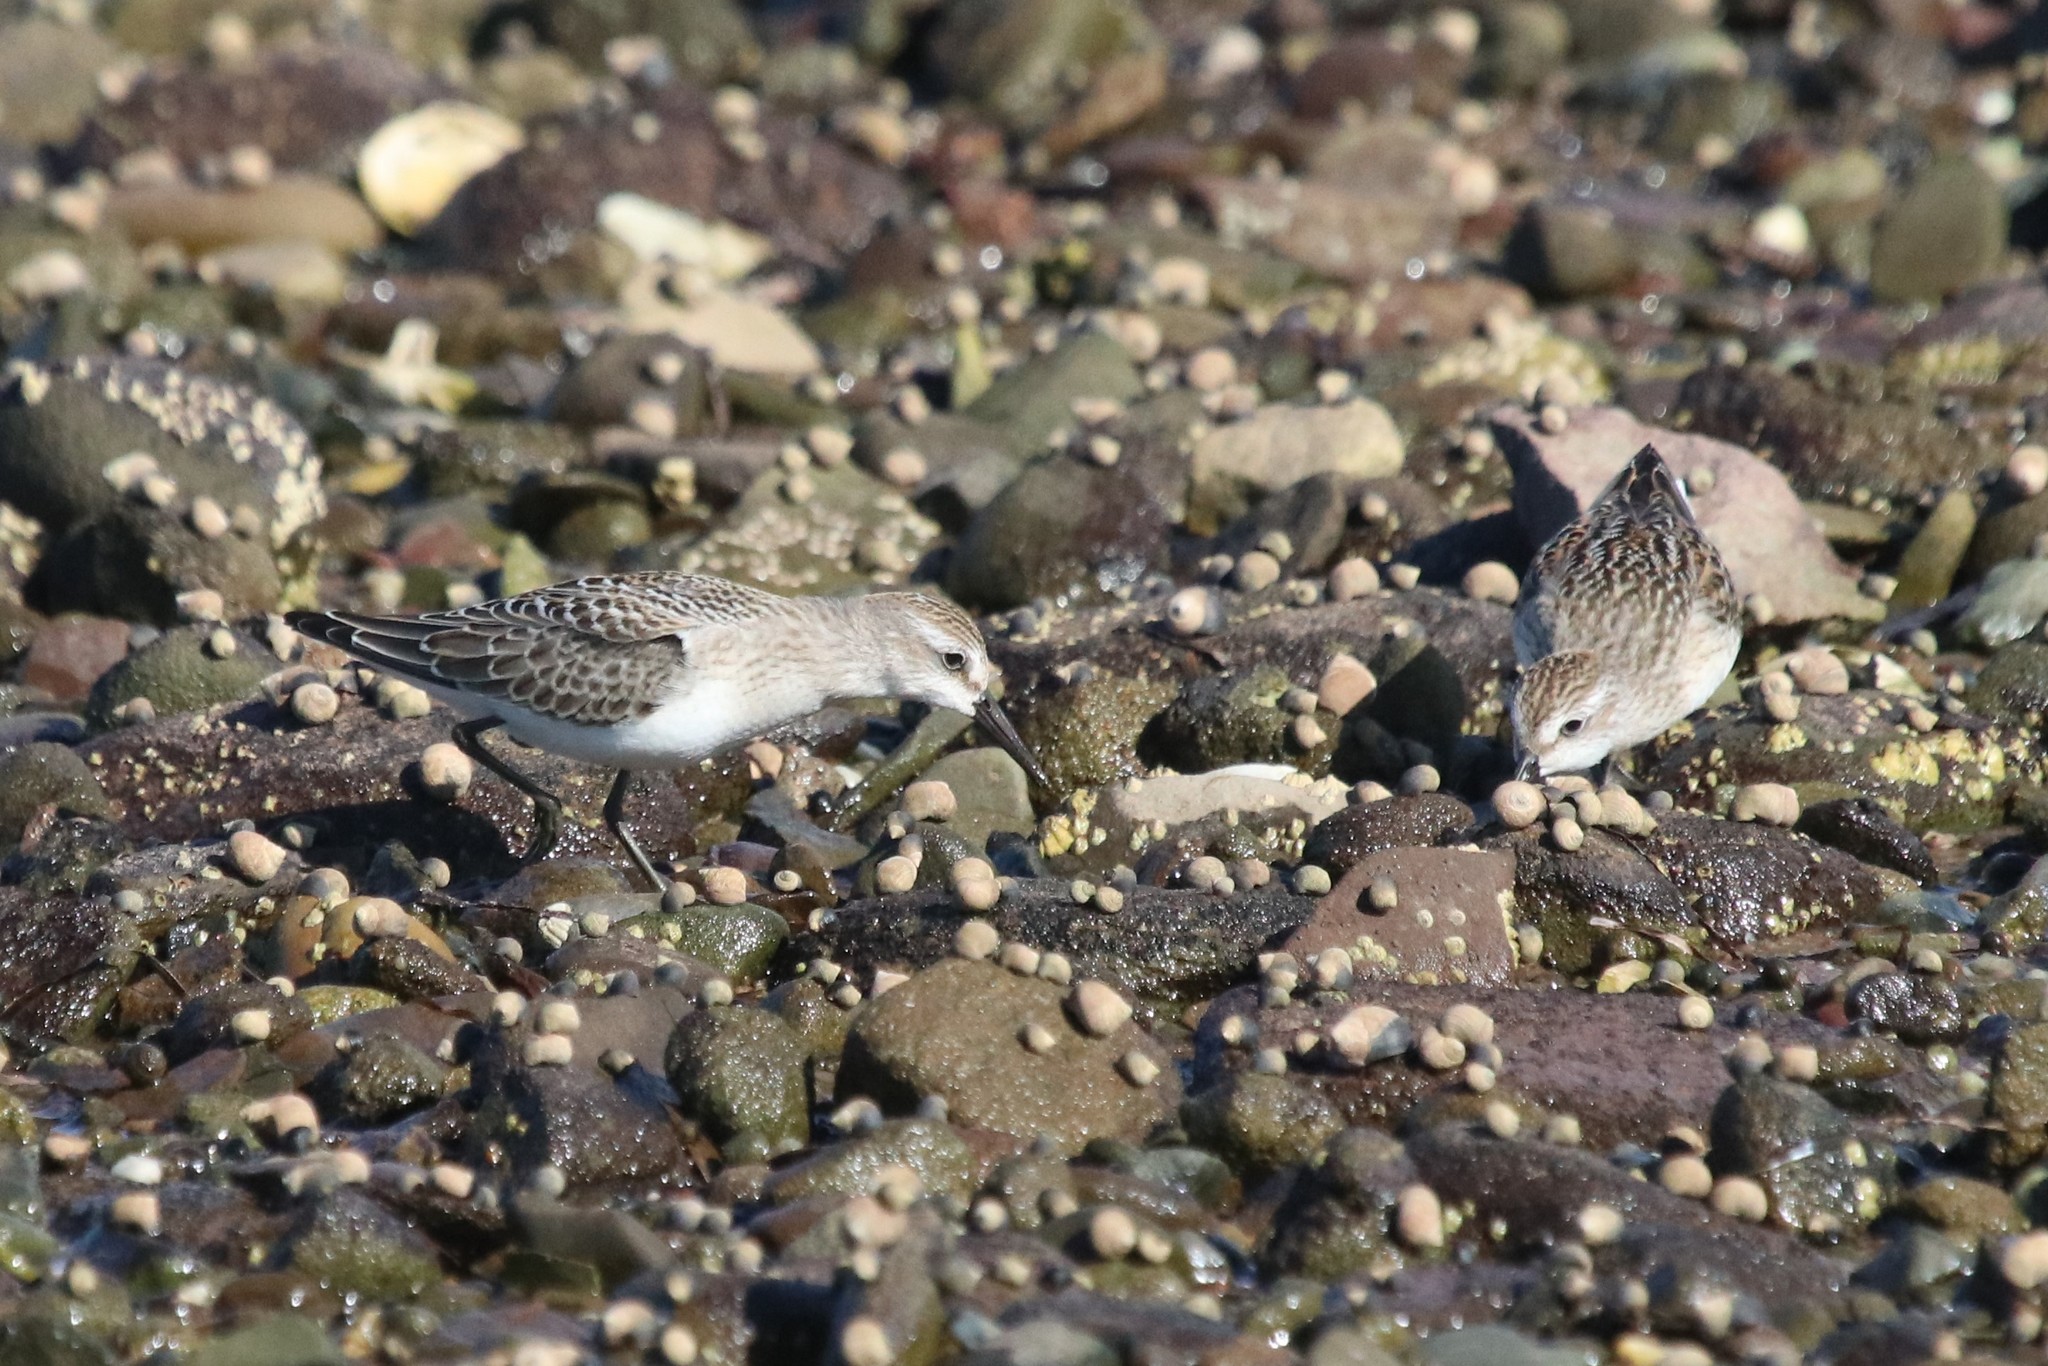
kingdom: Animalia
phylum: Chordata
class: Aves
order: Charadriiformes
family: Scolopacidae
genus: Calidris
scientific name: Calidris pusilla
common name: Semipalmated sandpiper
